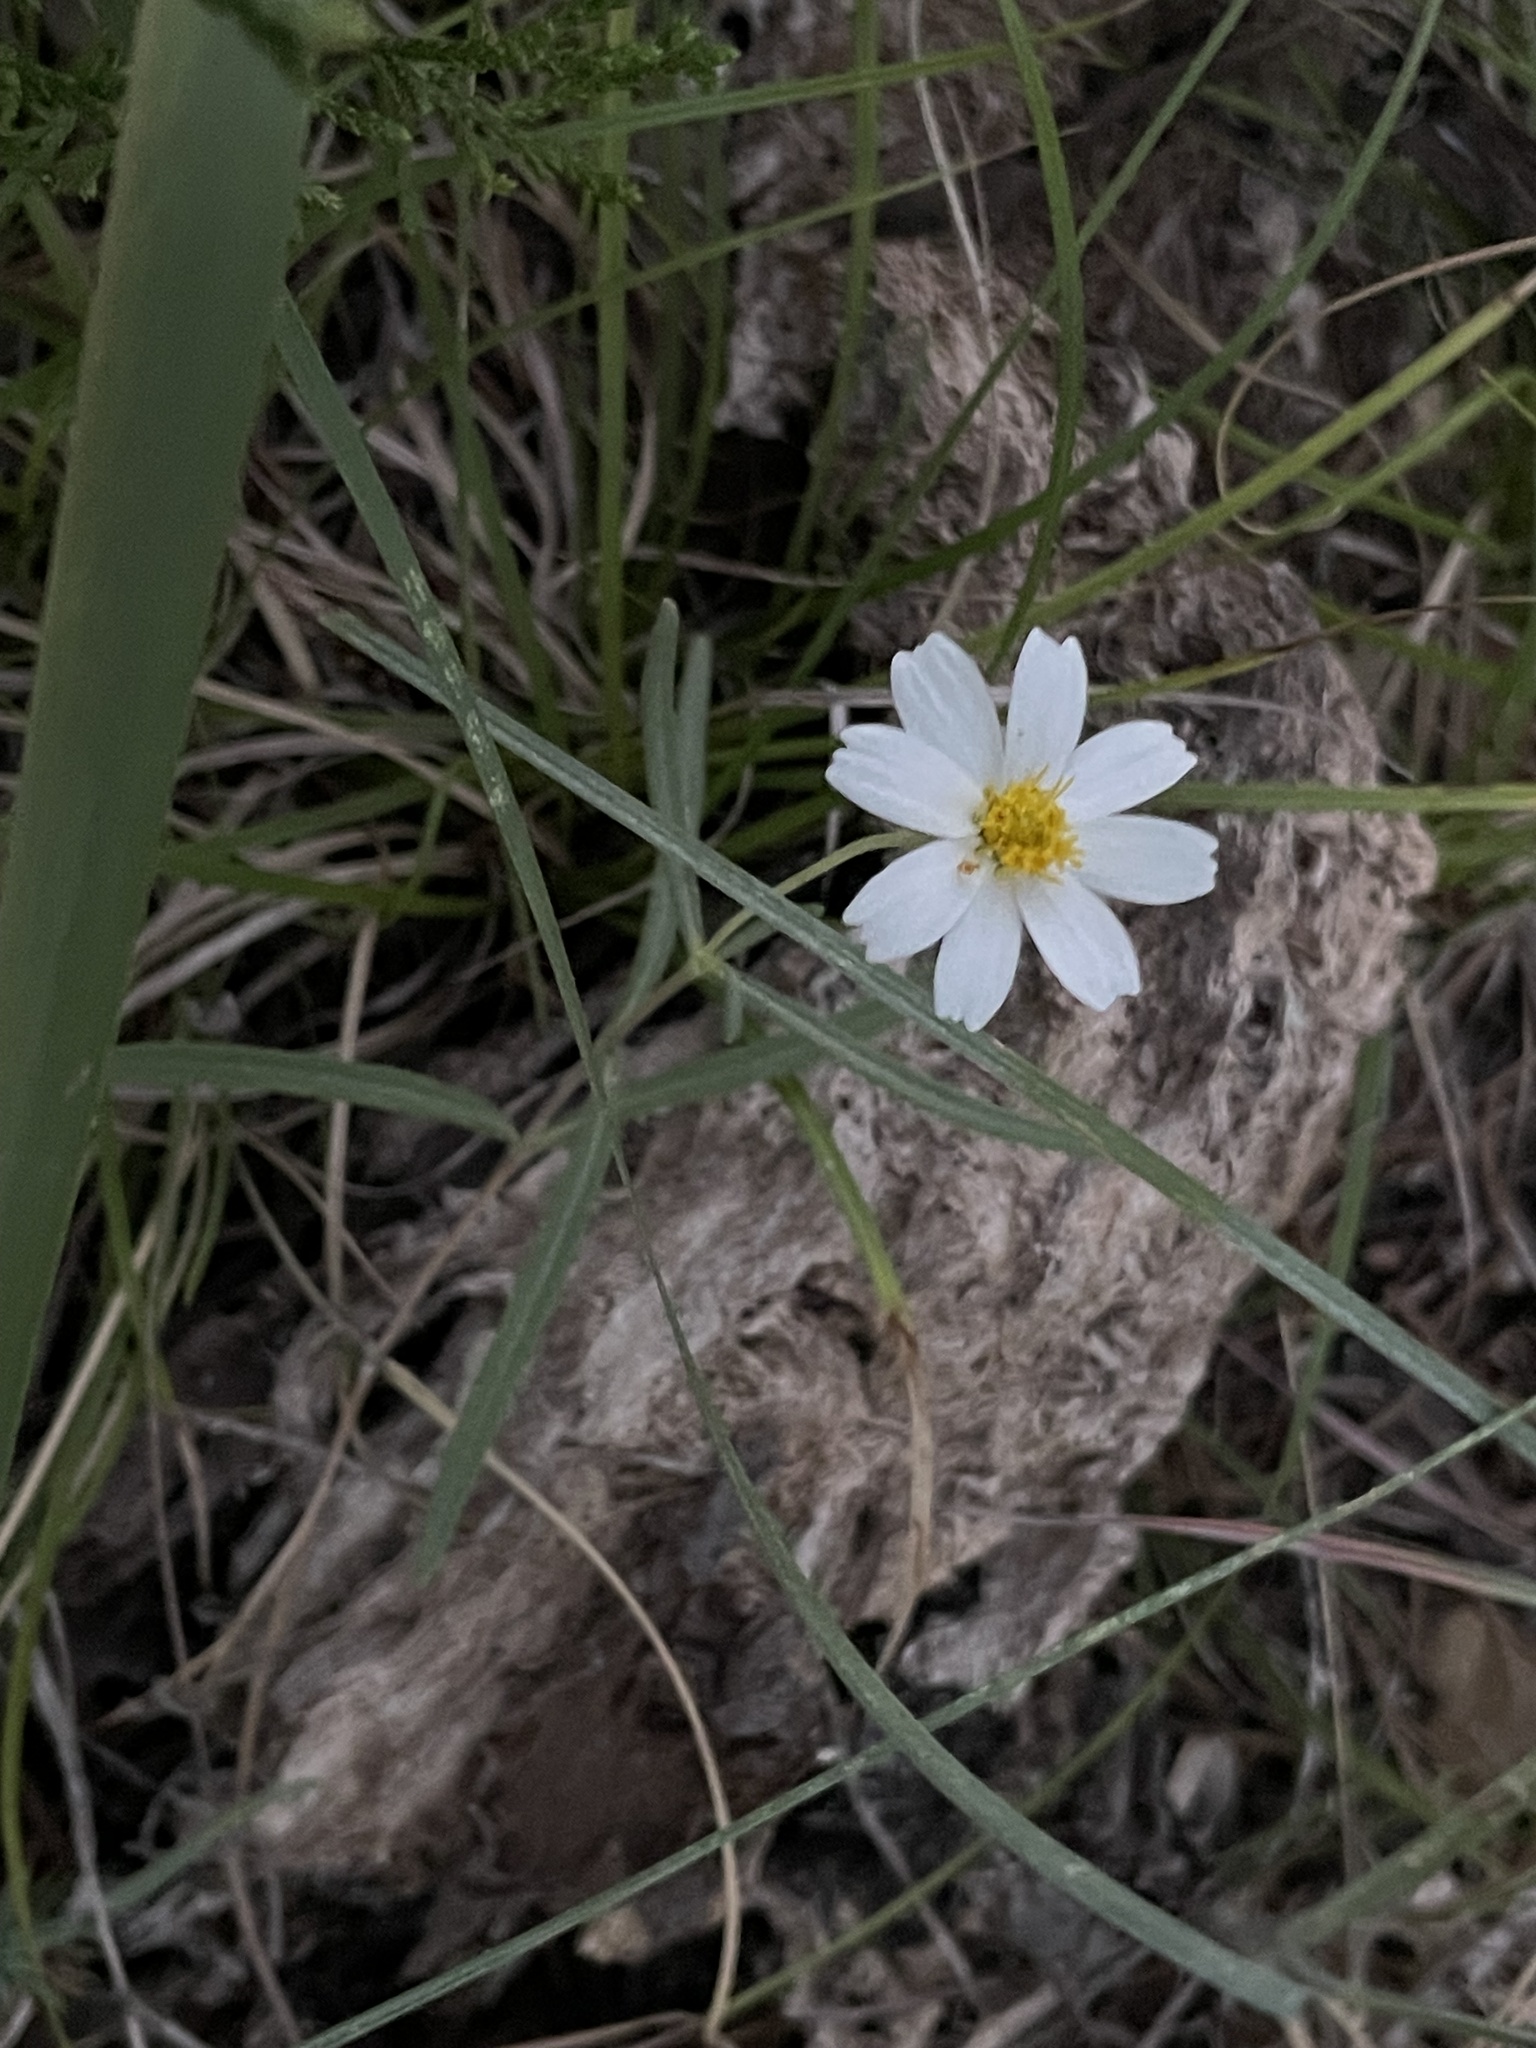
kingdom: Plantae
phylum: Tracheophyta
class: Magnoliopsida
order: Asterales
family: Asteraceae
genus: Melampodium
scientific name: Melampodium leucanthum
